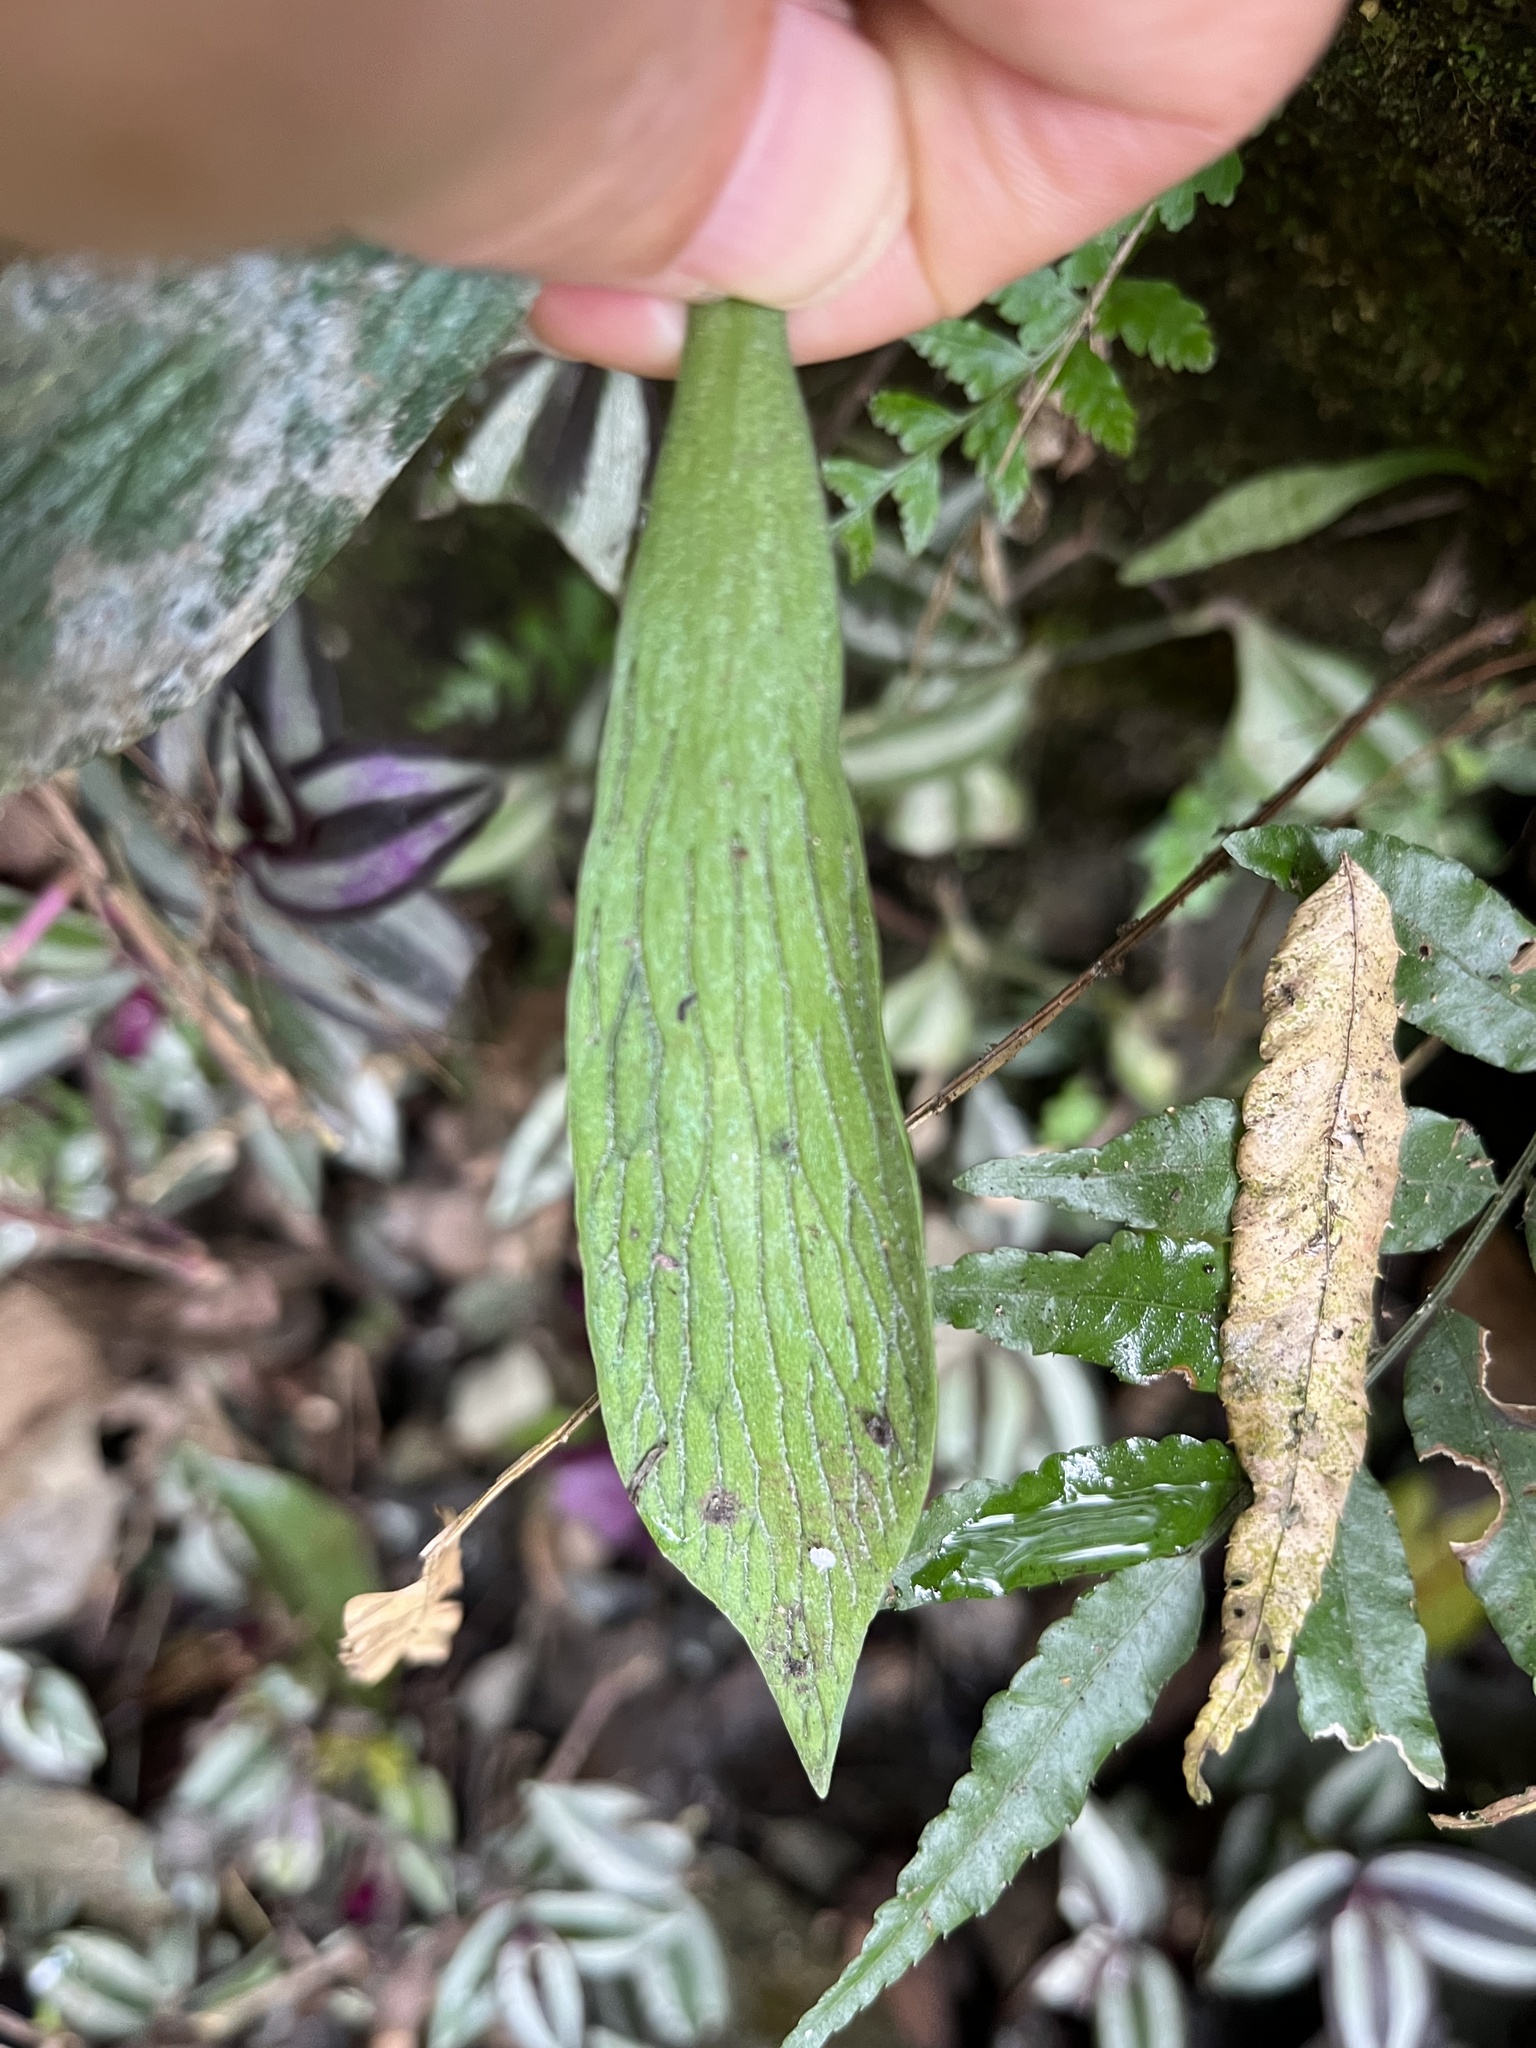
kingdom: Plantae
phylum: Tracheophyta
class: Polypodiopsida
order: Polypodiales
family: Pteridaceae
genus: Antrophyum
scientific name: Antrophyum formosanum
